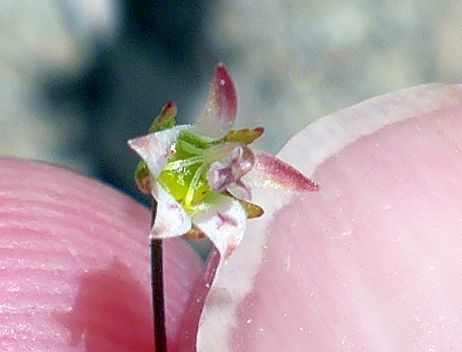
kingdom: Plantae
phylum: Tracheophyta
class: Magnoliopsida
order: Asterales
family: Campanulaceae
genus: Nemacladus
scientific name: Nemacladus tenuis
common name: Desert threadplant
